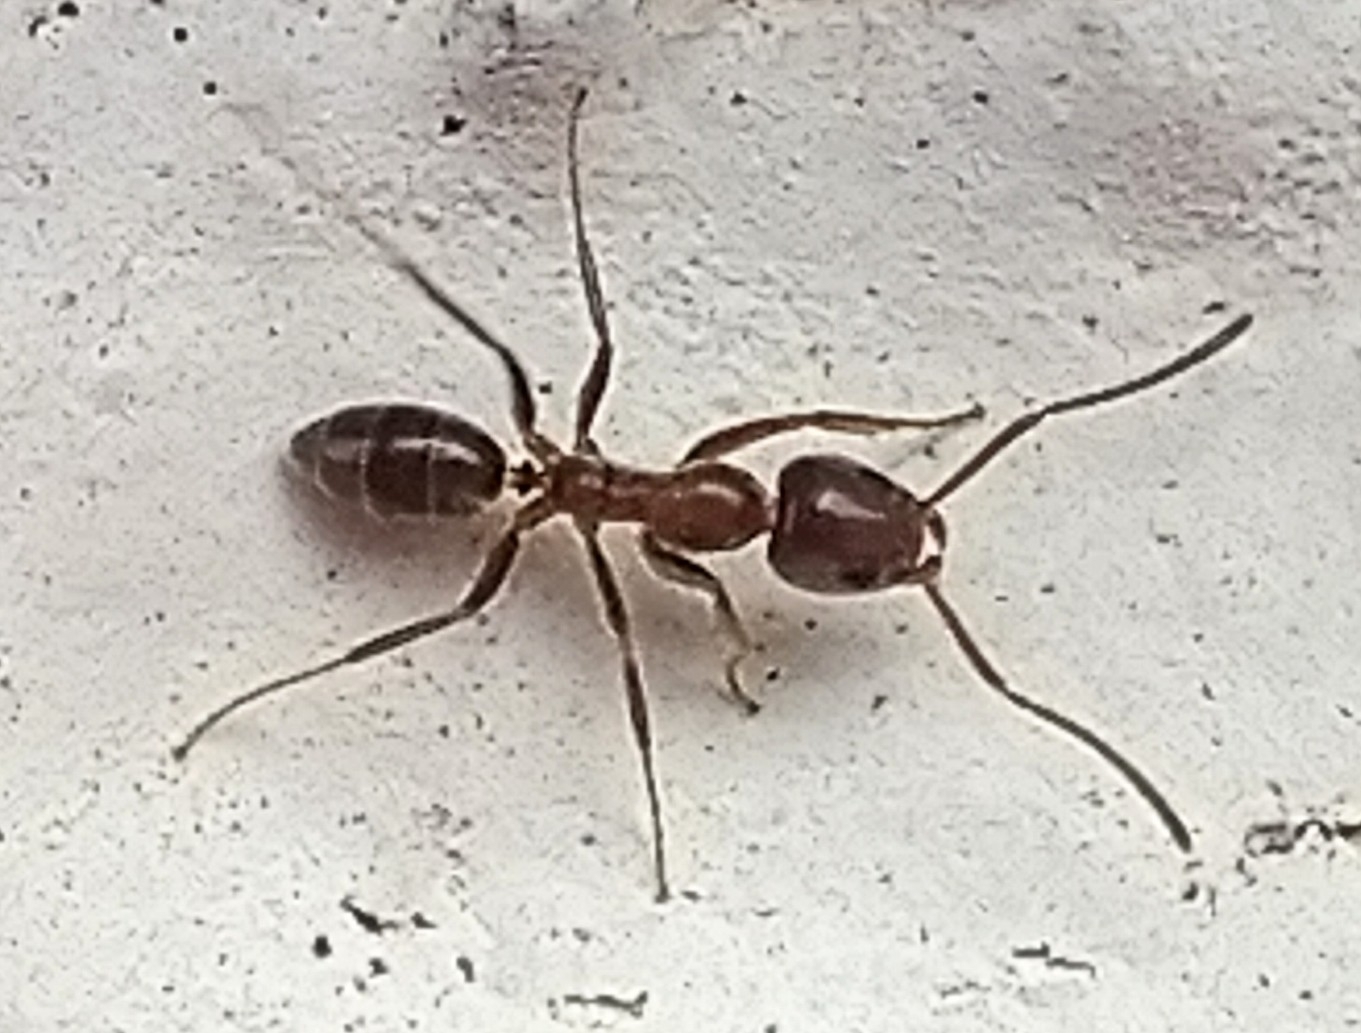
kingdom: Animalia
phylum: Arthropoda
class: Insecta
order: Hymenoptera
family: Formicidae
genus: Linepithema
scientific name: Linepithema humile
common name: Argentine ant
